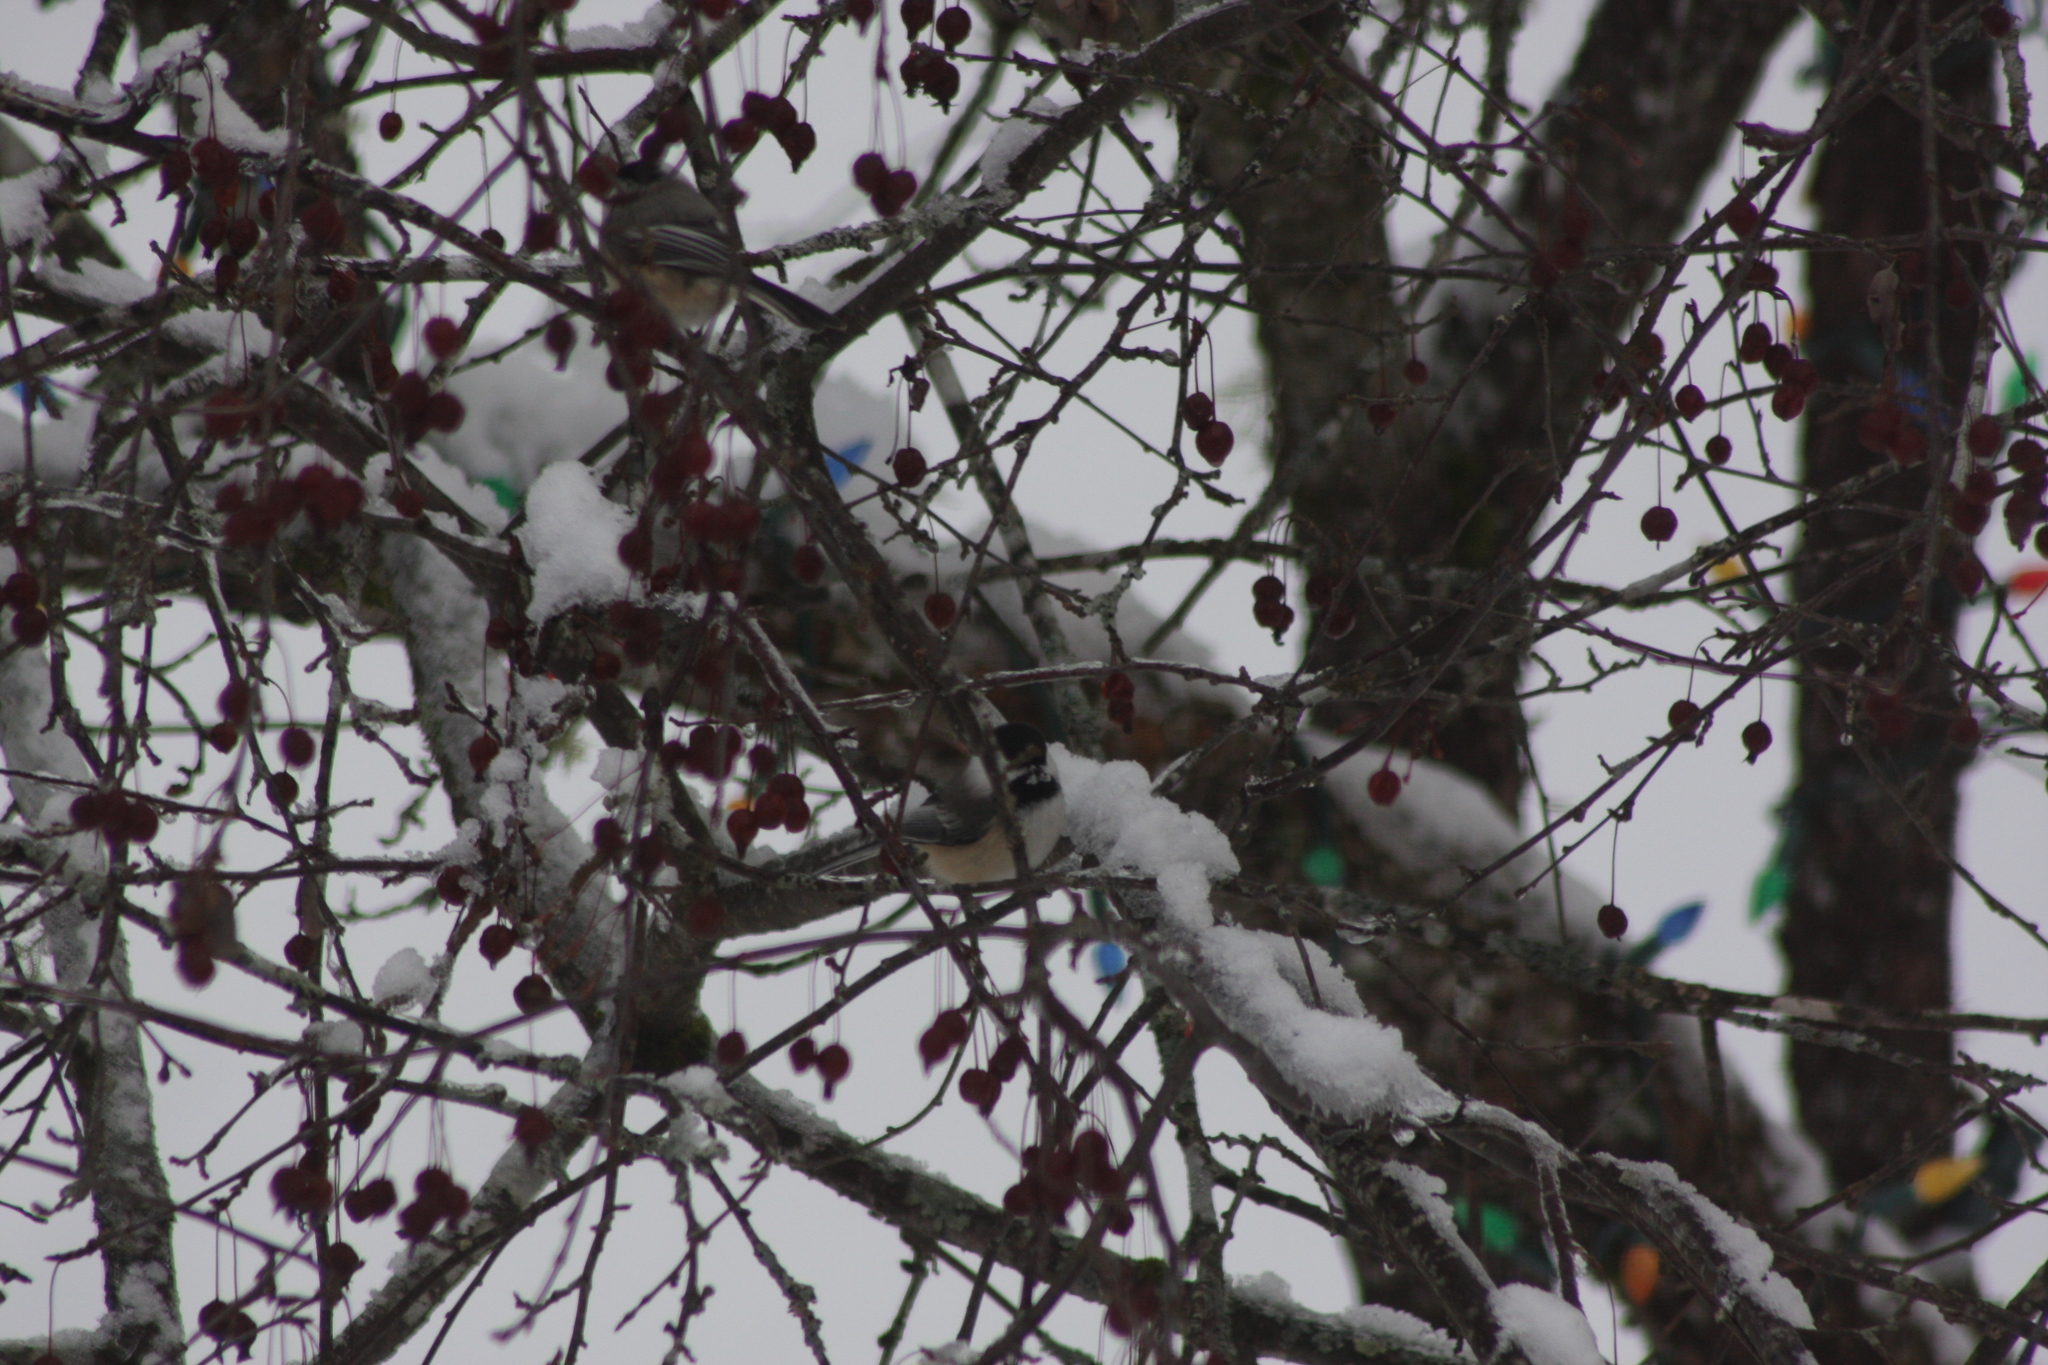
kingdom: Animalia
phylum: Chordata
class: Aves
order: Passeriformes
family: Paridae
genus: Poecile
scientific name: Poecile atricapillus
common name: Black-capped chickadee
